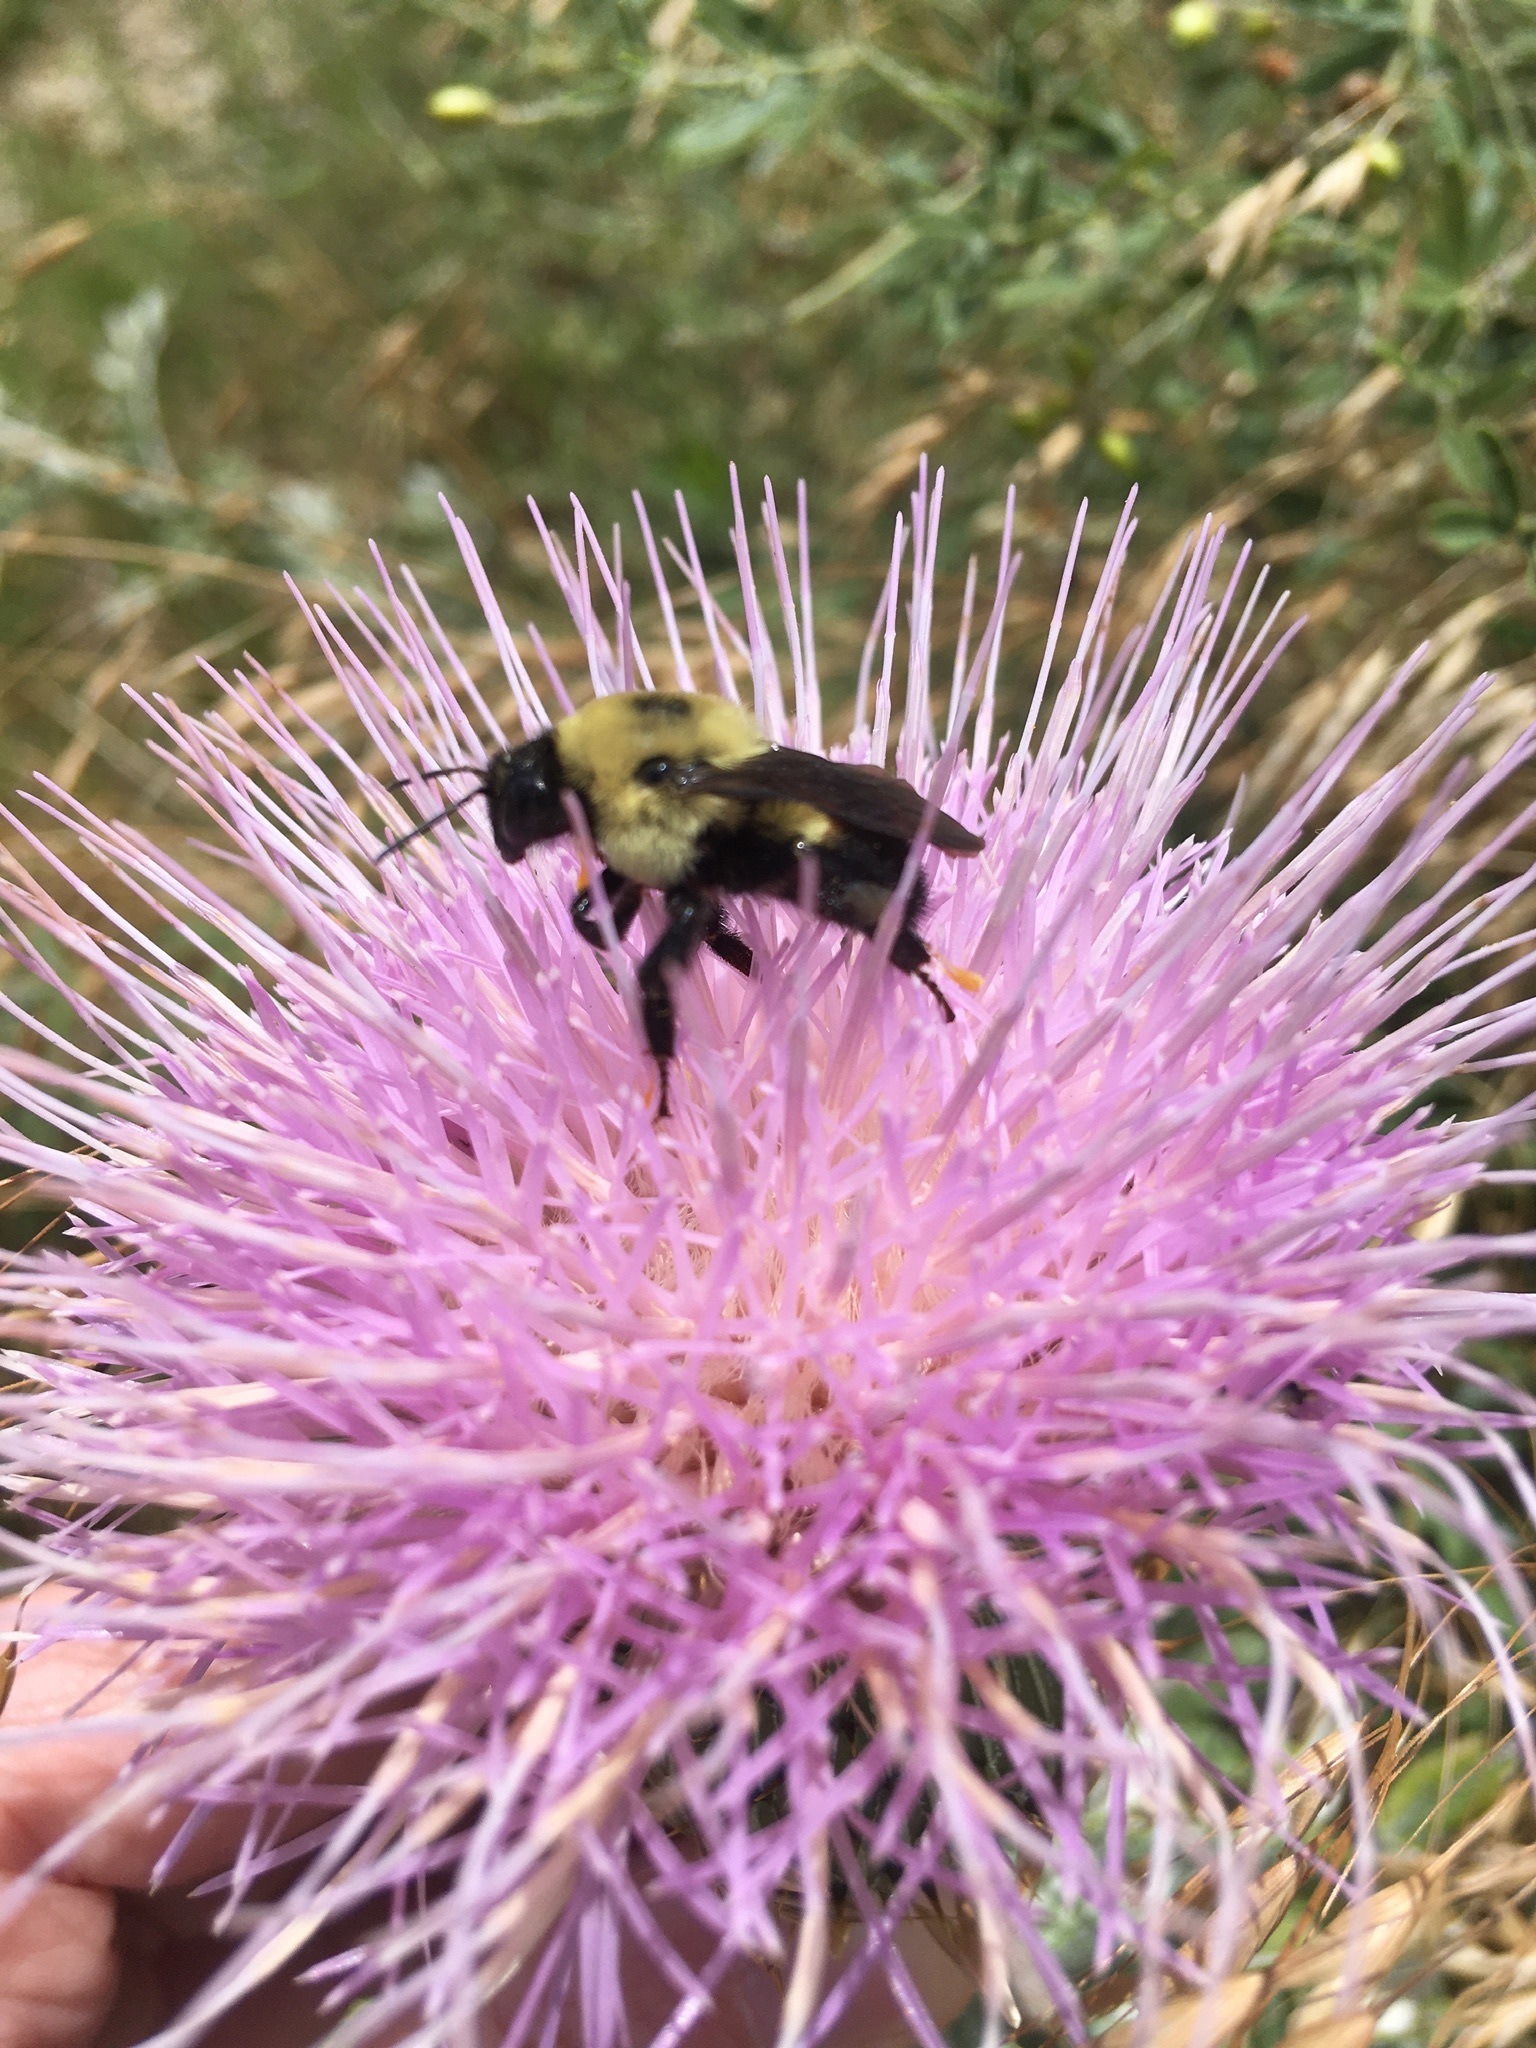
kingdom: Animalia
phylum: Arthropoda
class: Insecta
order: Hymenoptera
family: Apidae
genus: Bombus
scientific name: Bombus griseocollis
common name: Brown-belted bumble bee
